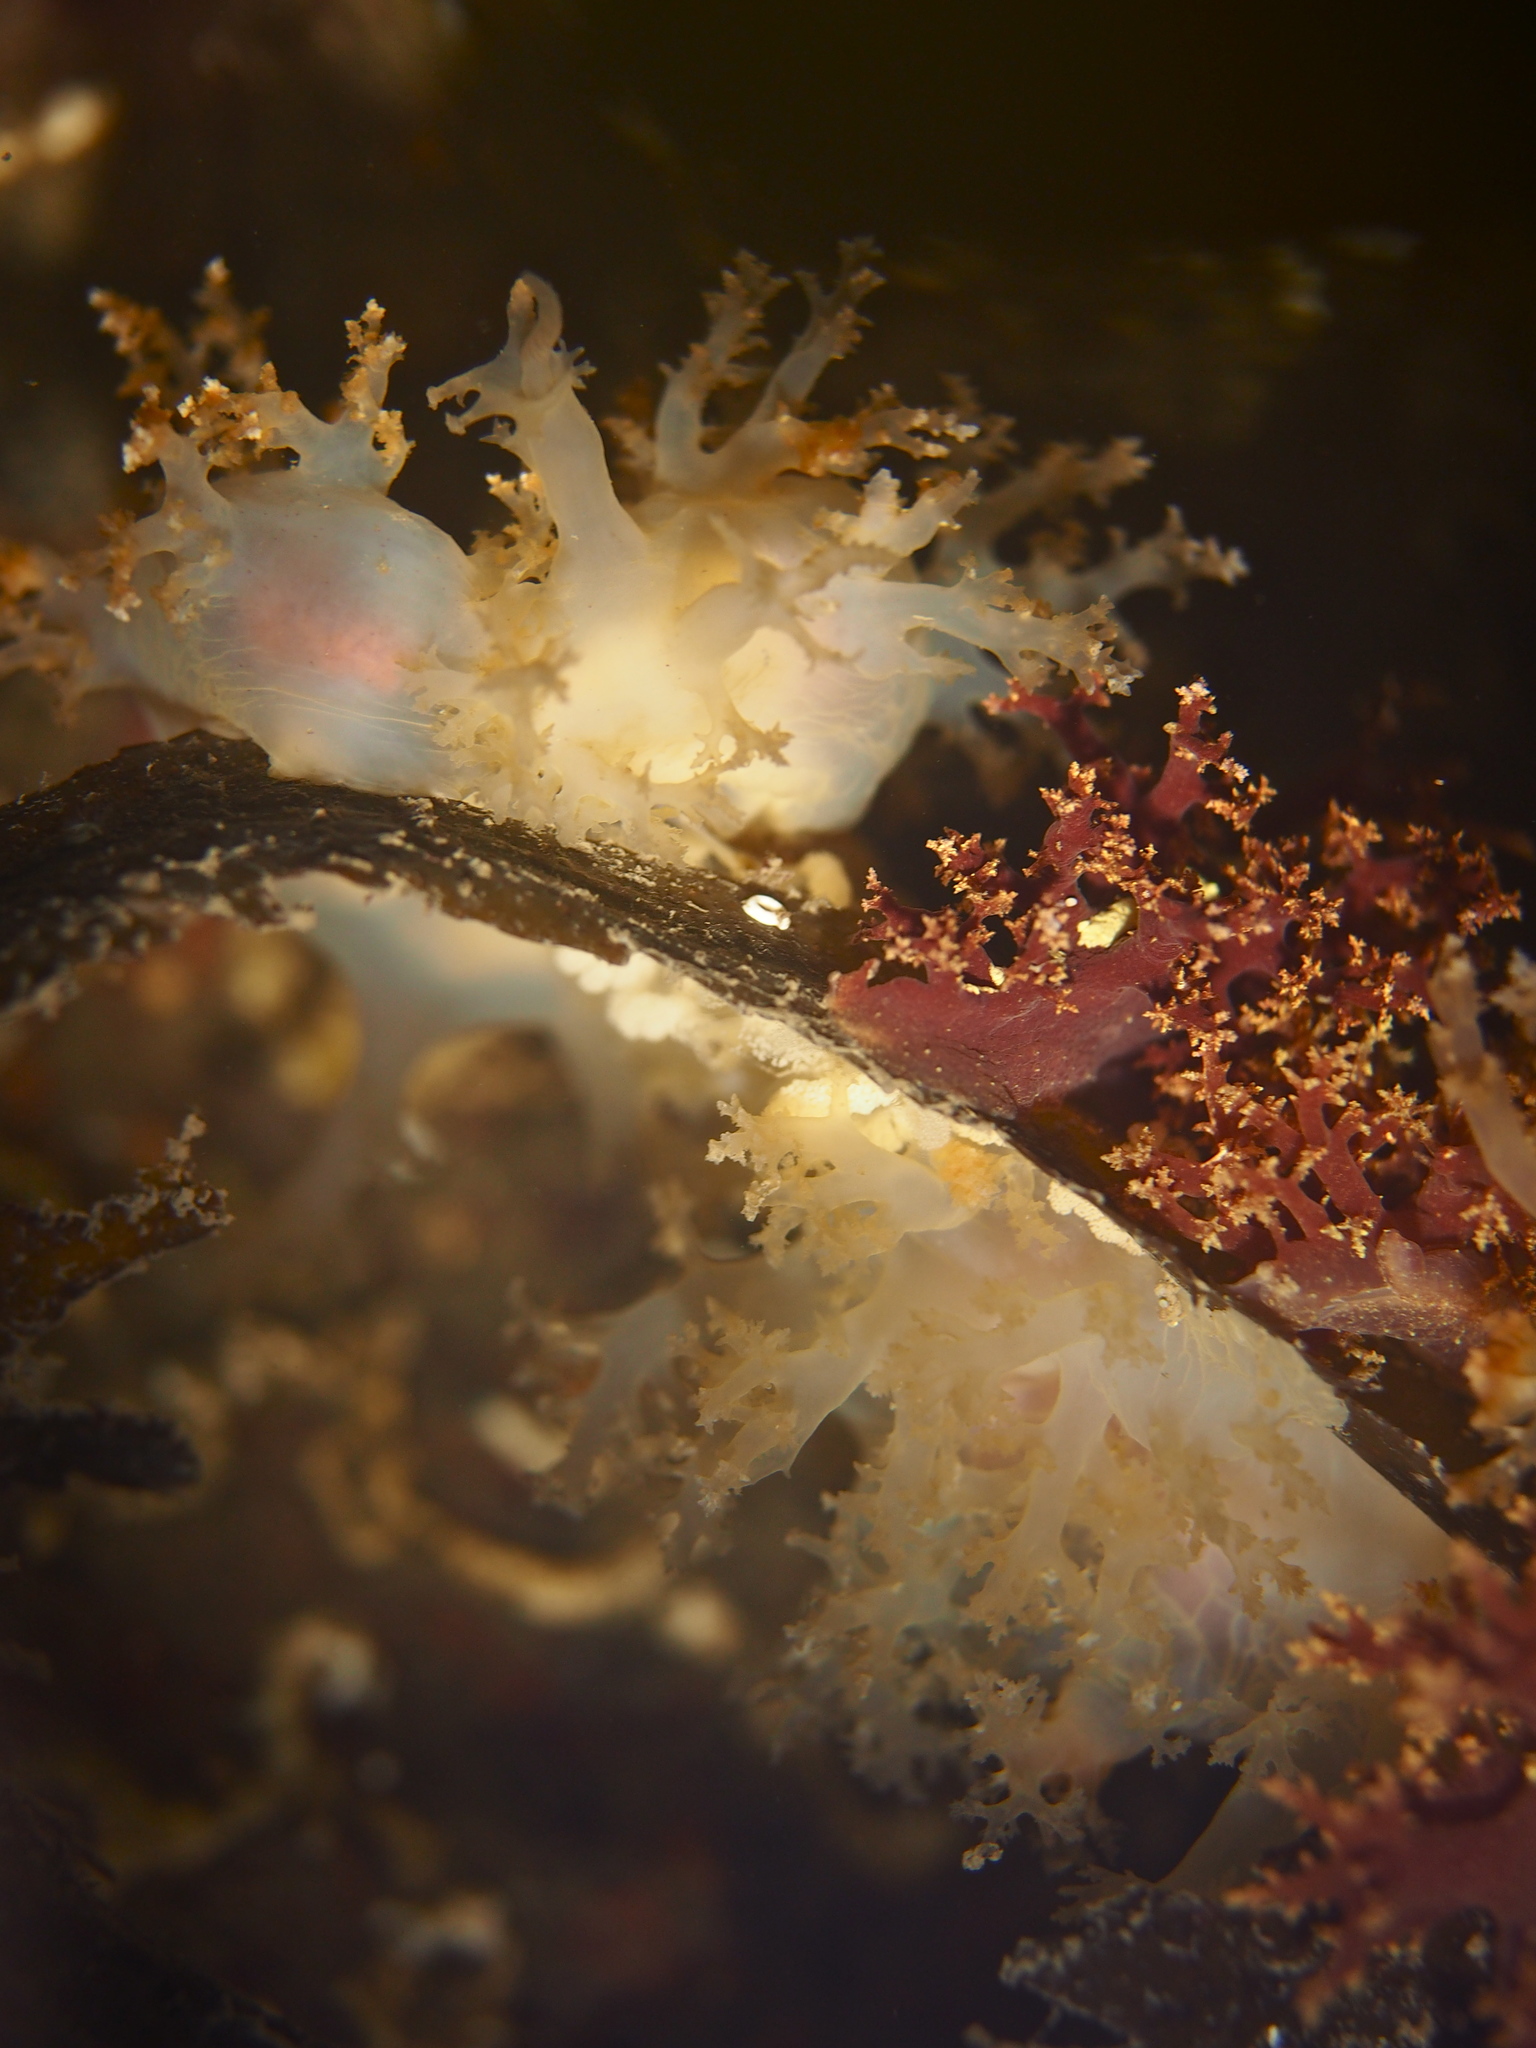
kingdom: Animalia
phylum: Mollusca
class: Gastropoda
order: Nudibranchia
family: Dendronotidae
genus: Dendronotus
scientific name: Dendronotus lacteus
